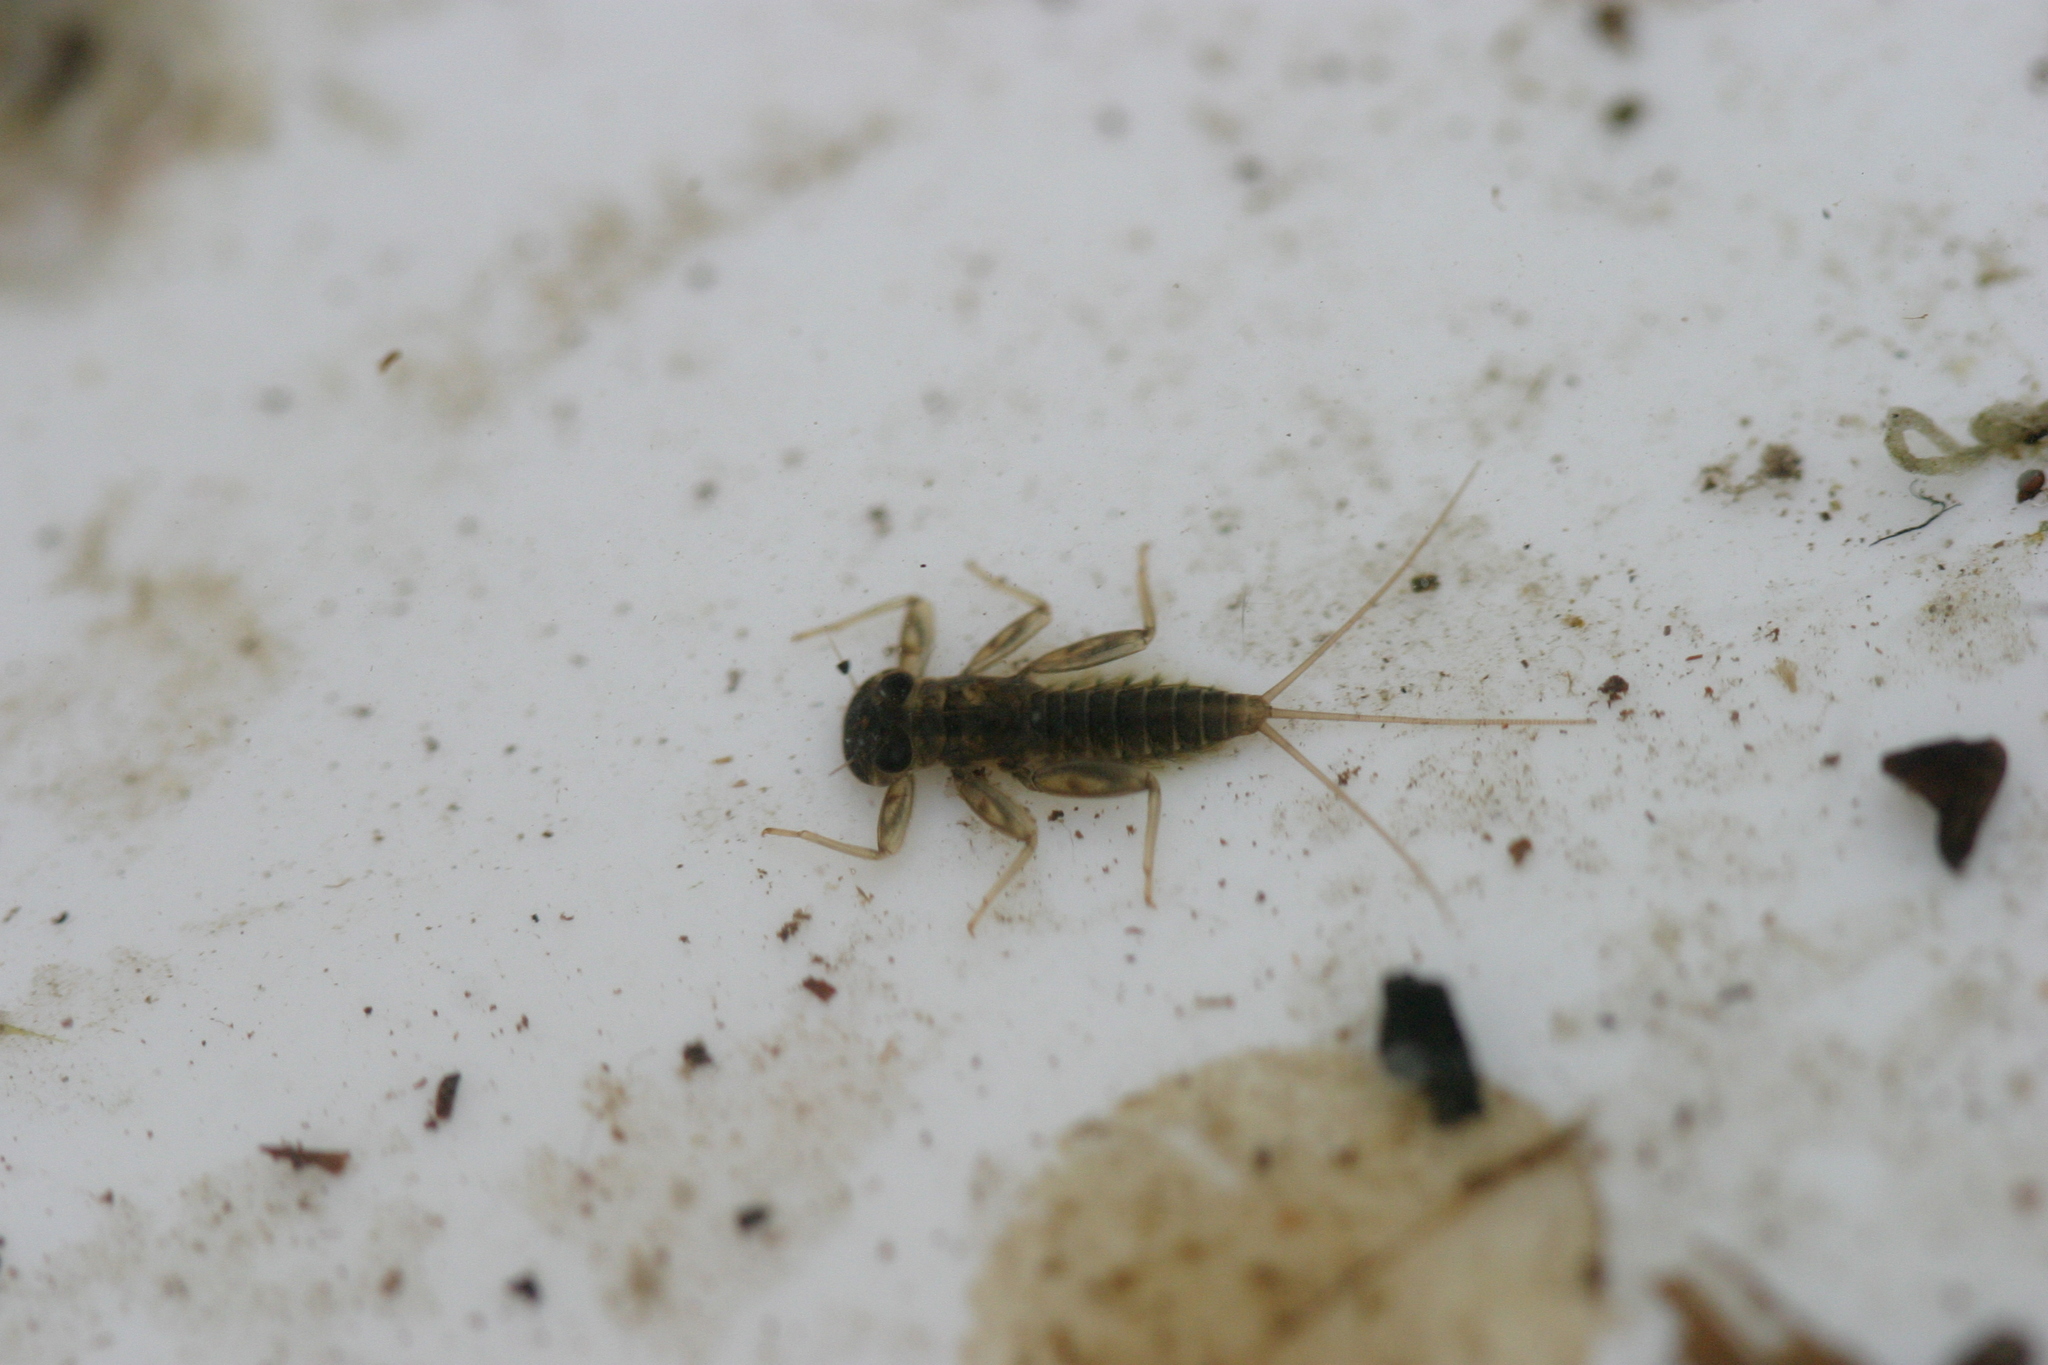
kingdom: Animalia
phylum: Arthropoda
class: Insecta
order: Ephemeroptera
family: Heptageniidae
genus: Rhithrogena
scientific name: Rhithrogena germanica
